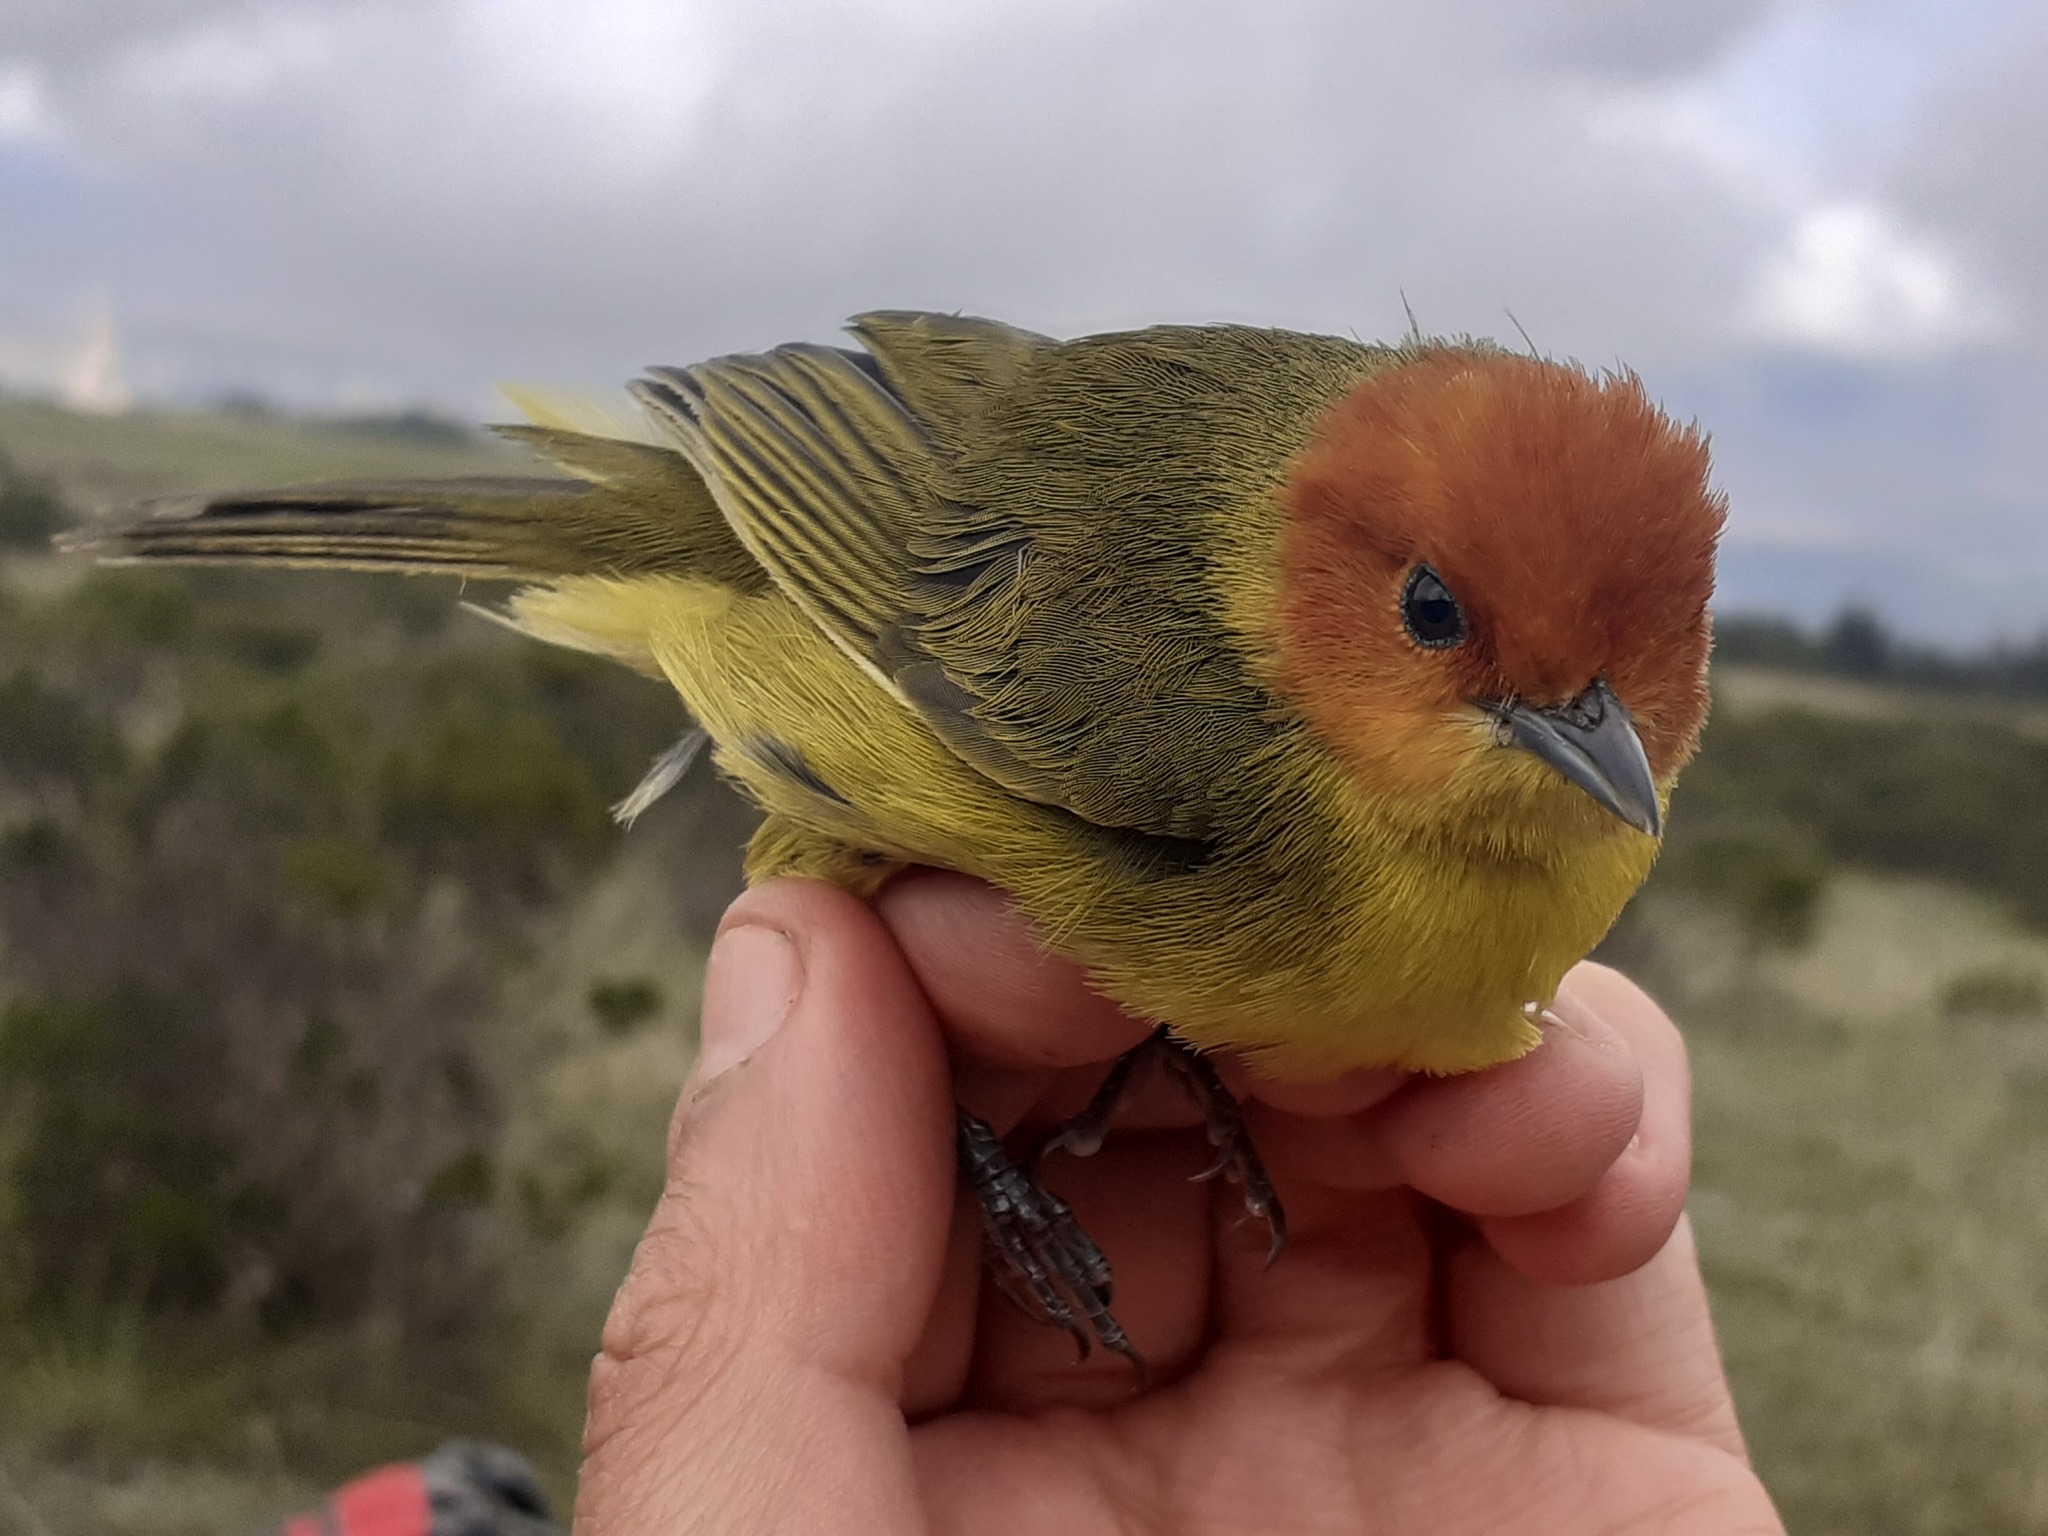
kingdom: Animalia
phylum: Chordata
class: Aves
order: Passeriformes
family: Thraupidae
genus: Thlypopsis
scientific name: Thlypopsis ruficeps
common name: Rust-and-yellow tanager
